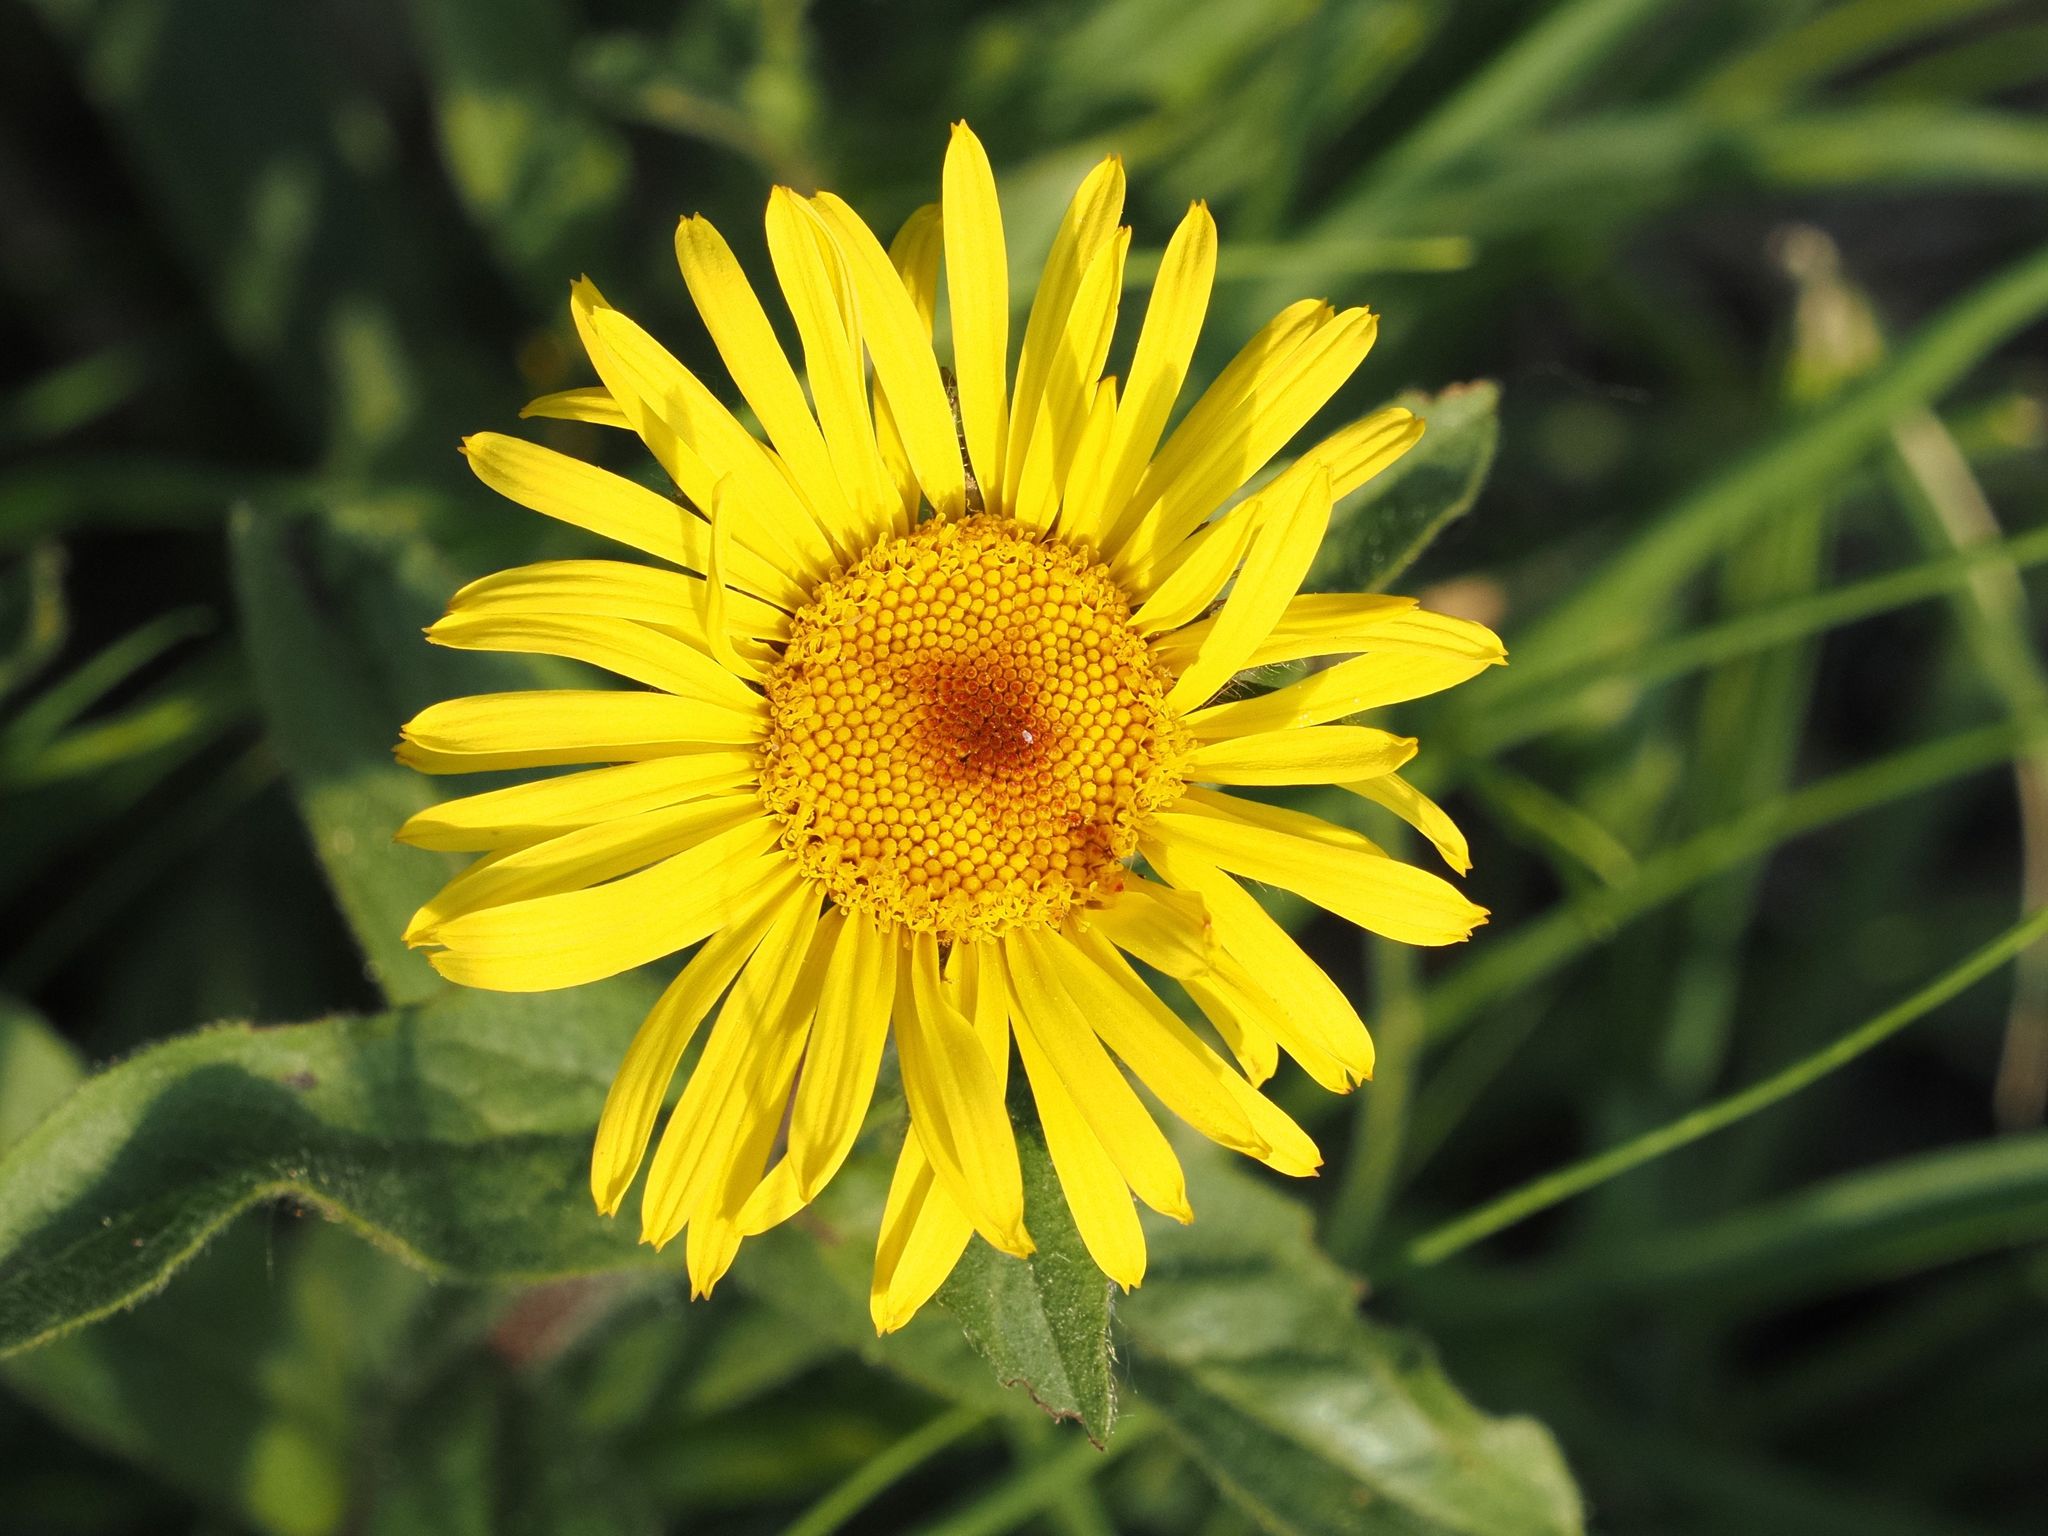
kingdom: Plantae
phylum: Tracheophyta
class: Magnoliopsida
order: Asterales
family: Asteraceae
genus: Pentanema
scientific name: Pentanema hirtum
